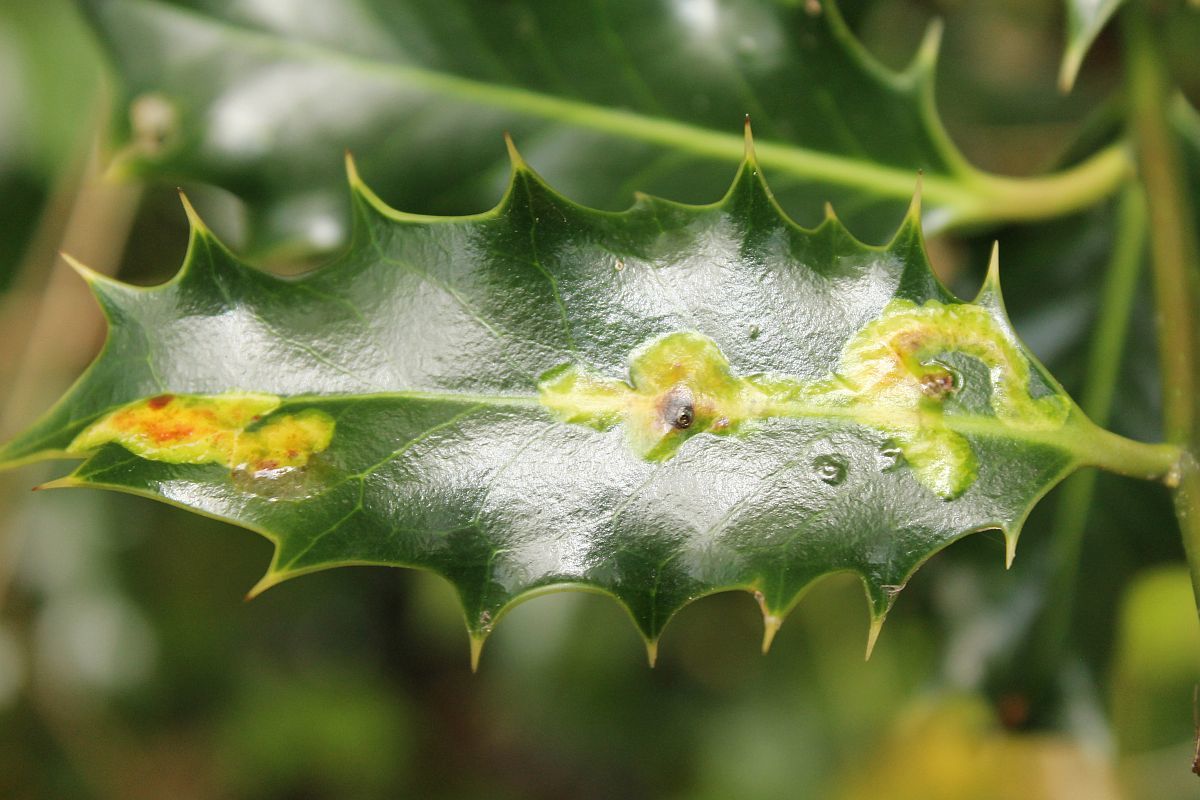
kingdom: Animalia
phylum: Arthropoda
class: Insecta
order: Diptera
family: Agromyzidae
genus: Phytomyza
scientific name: Phytomyza ilicis
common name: Holly leafminer
